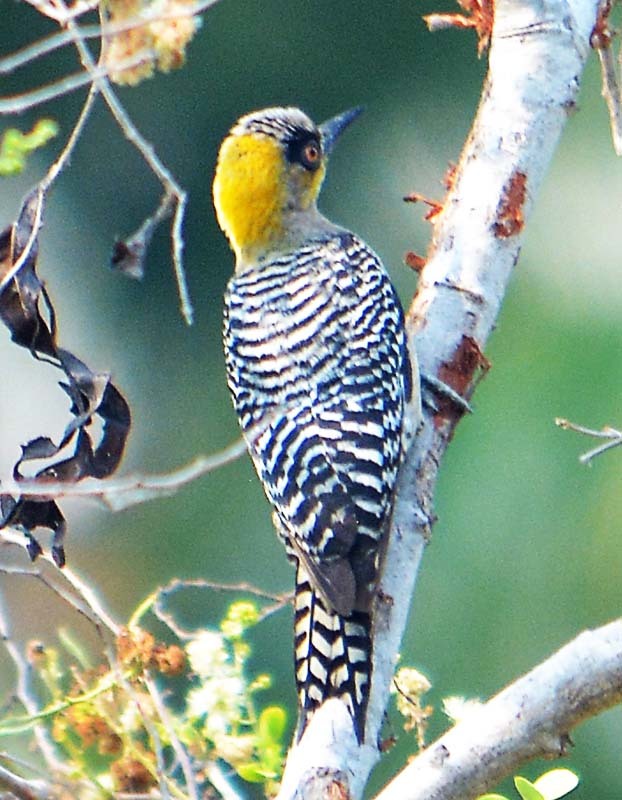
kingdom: Animalia
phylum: Chordata
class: Aves
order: Piciformes
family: Picidae
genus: Melanerpes
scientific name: Melanerpes chrysogenys
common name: Golden-cheeked woodpecker
